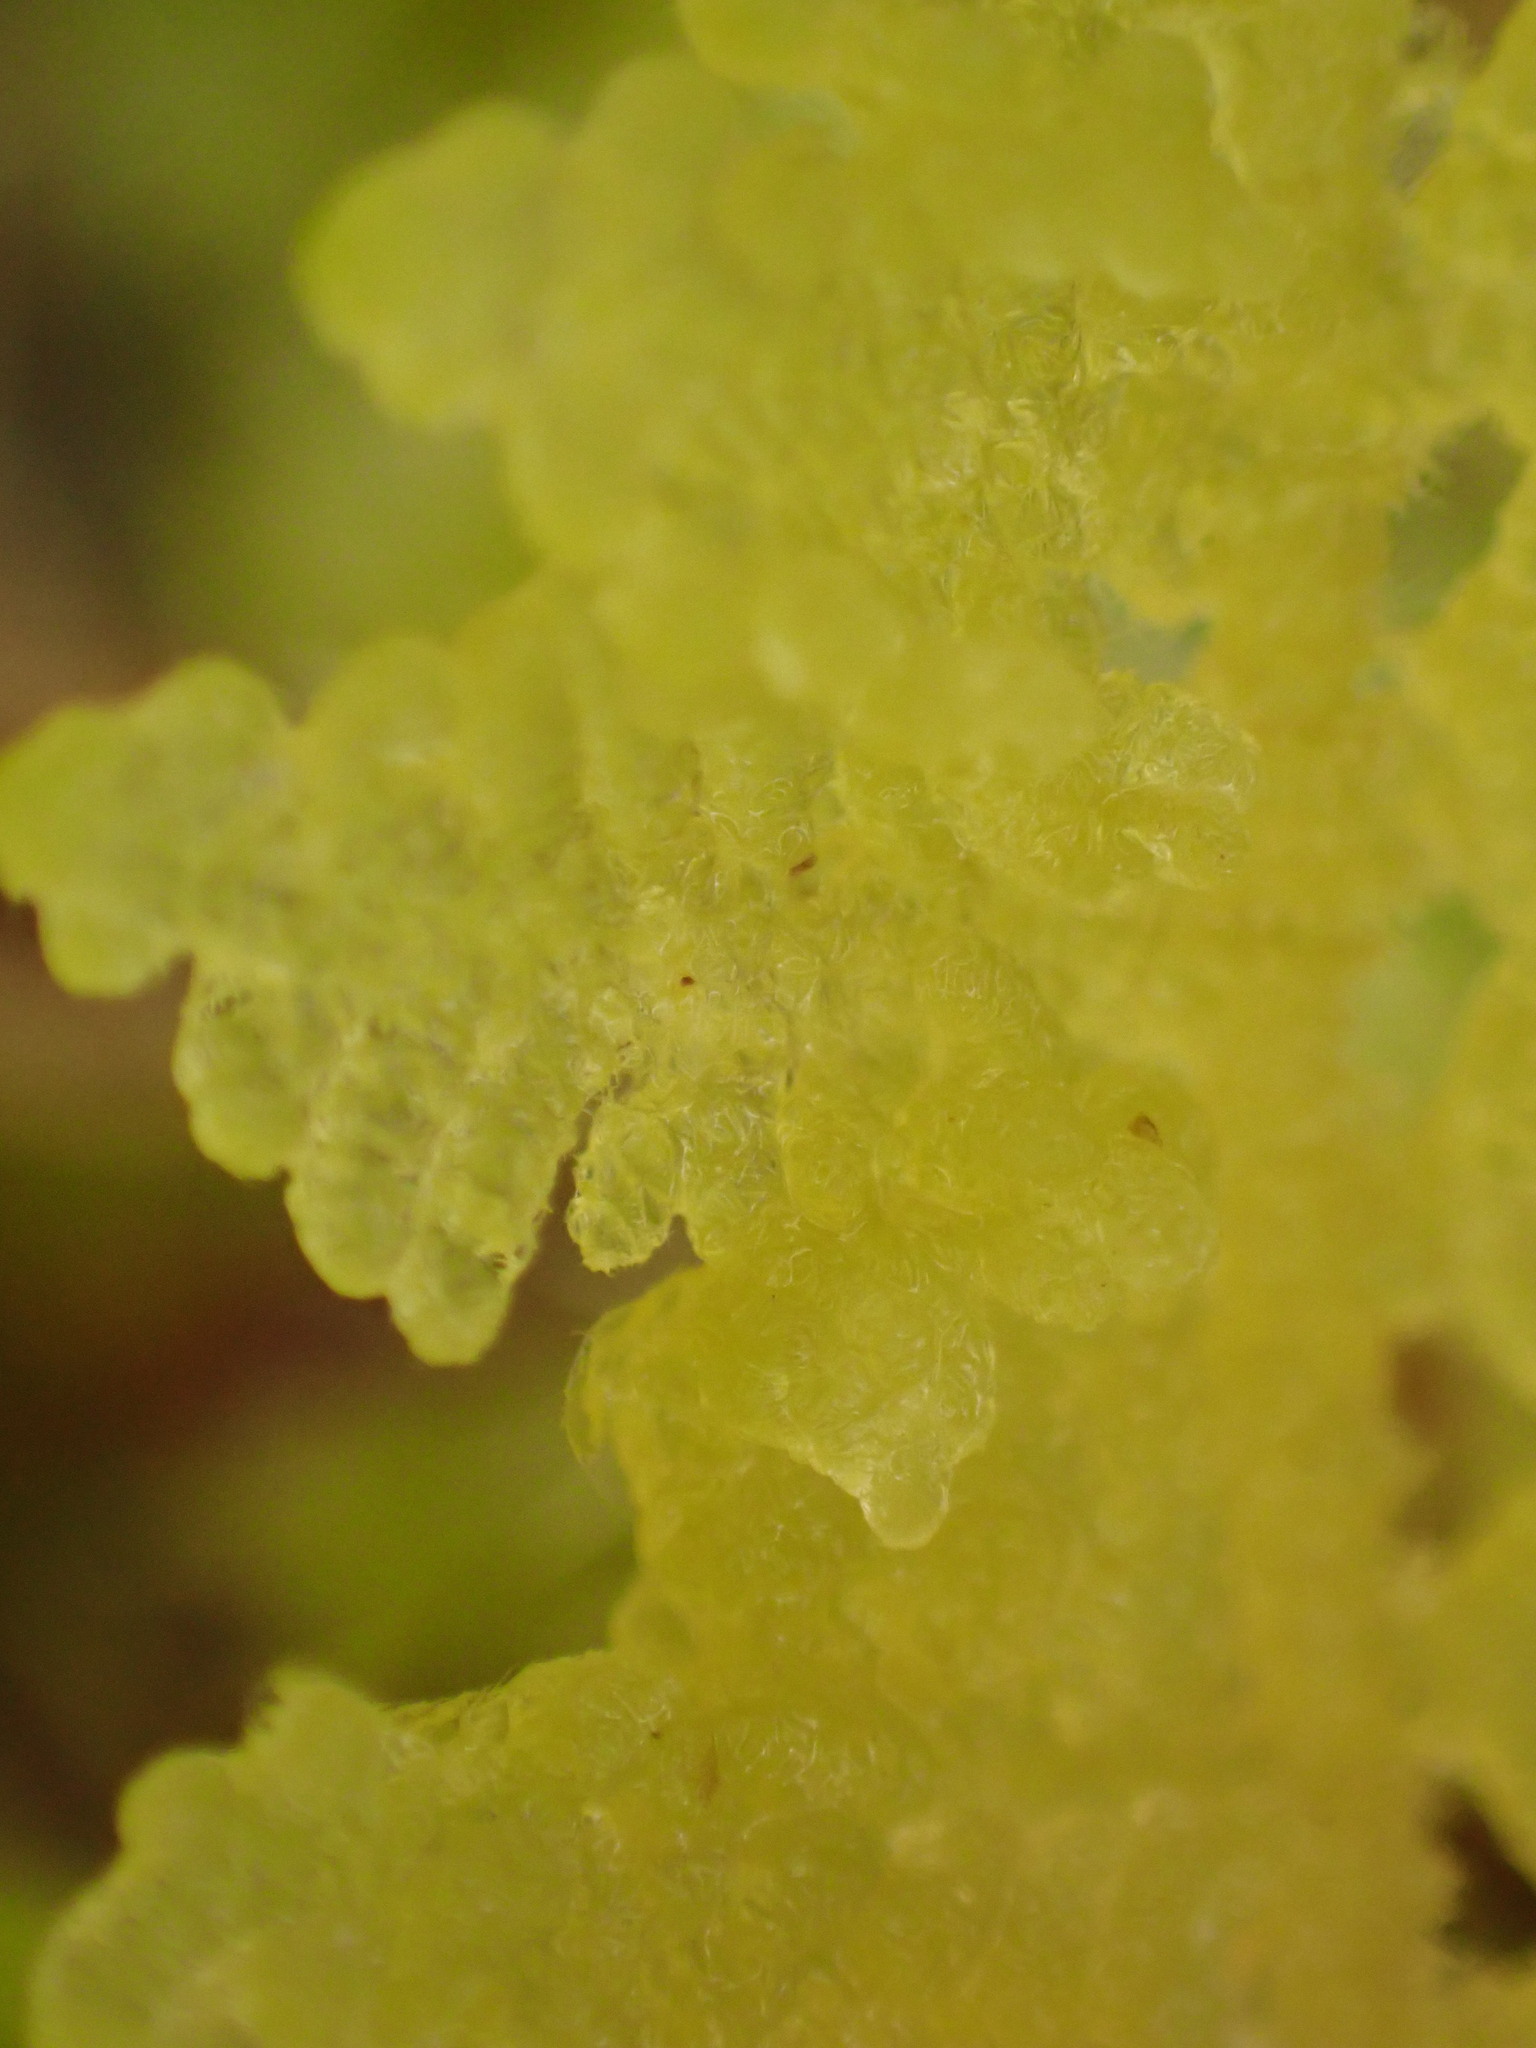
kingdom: Plantae
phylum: Marchantiophyta
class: Jungermanniopsida
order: Porellales
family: Lepidolaenaceae
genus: Lepidogyna
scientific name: Lepidogyna hodgsoniae
